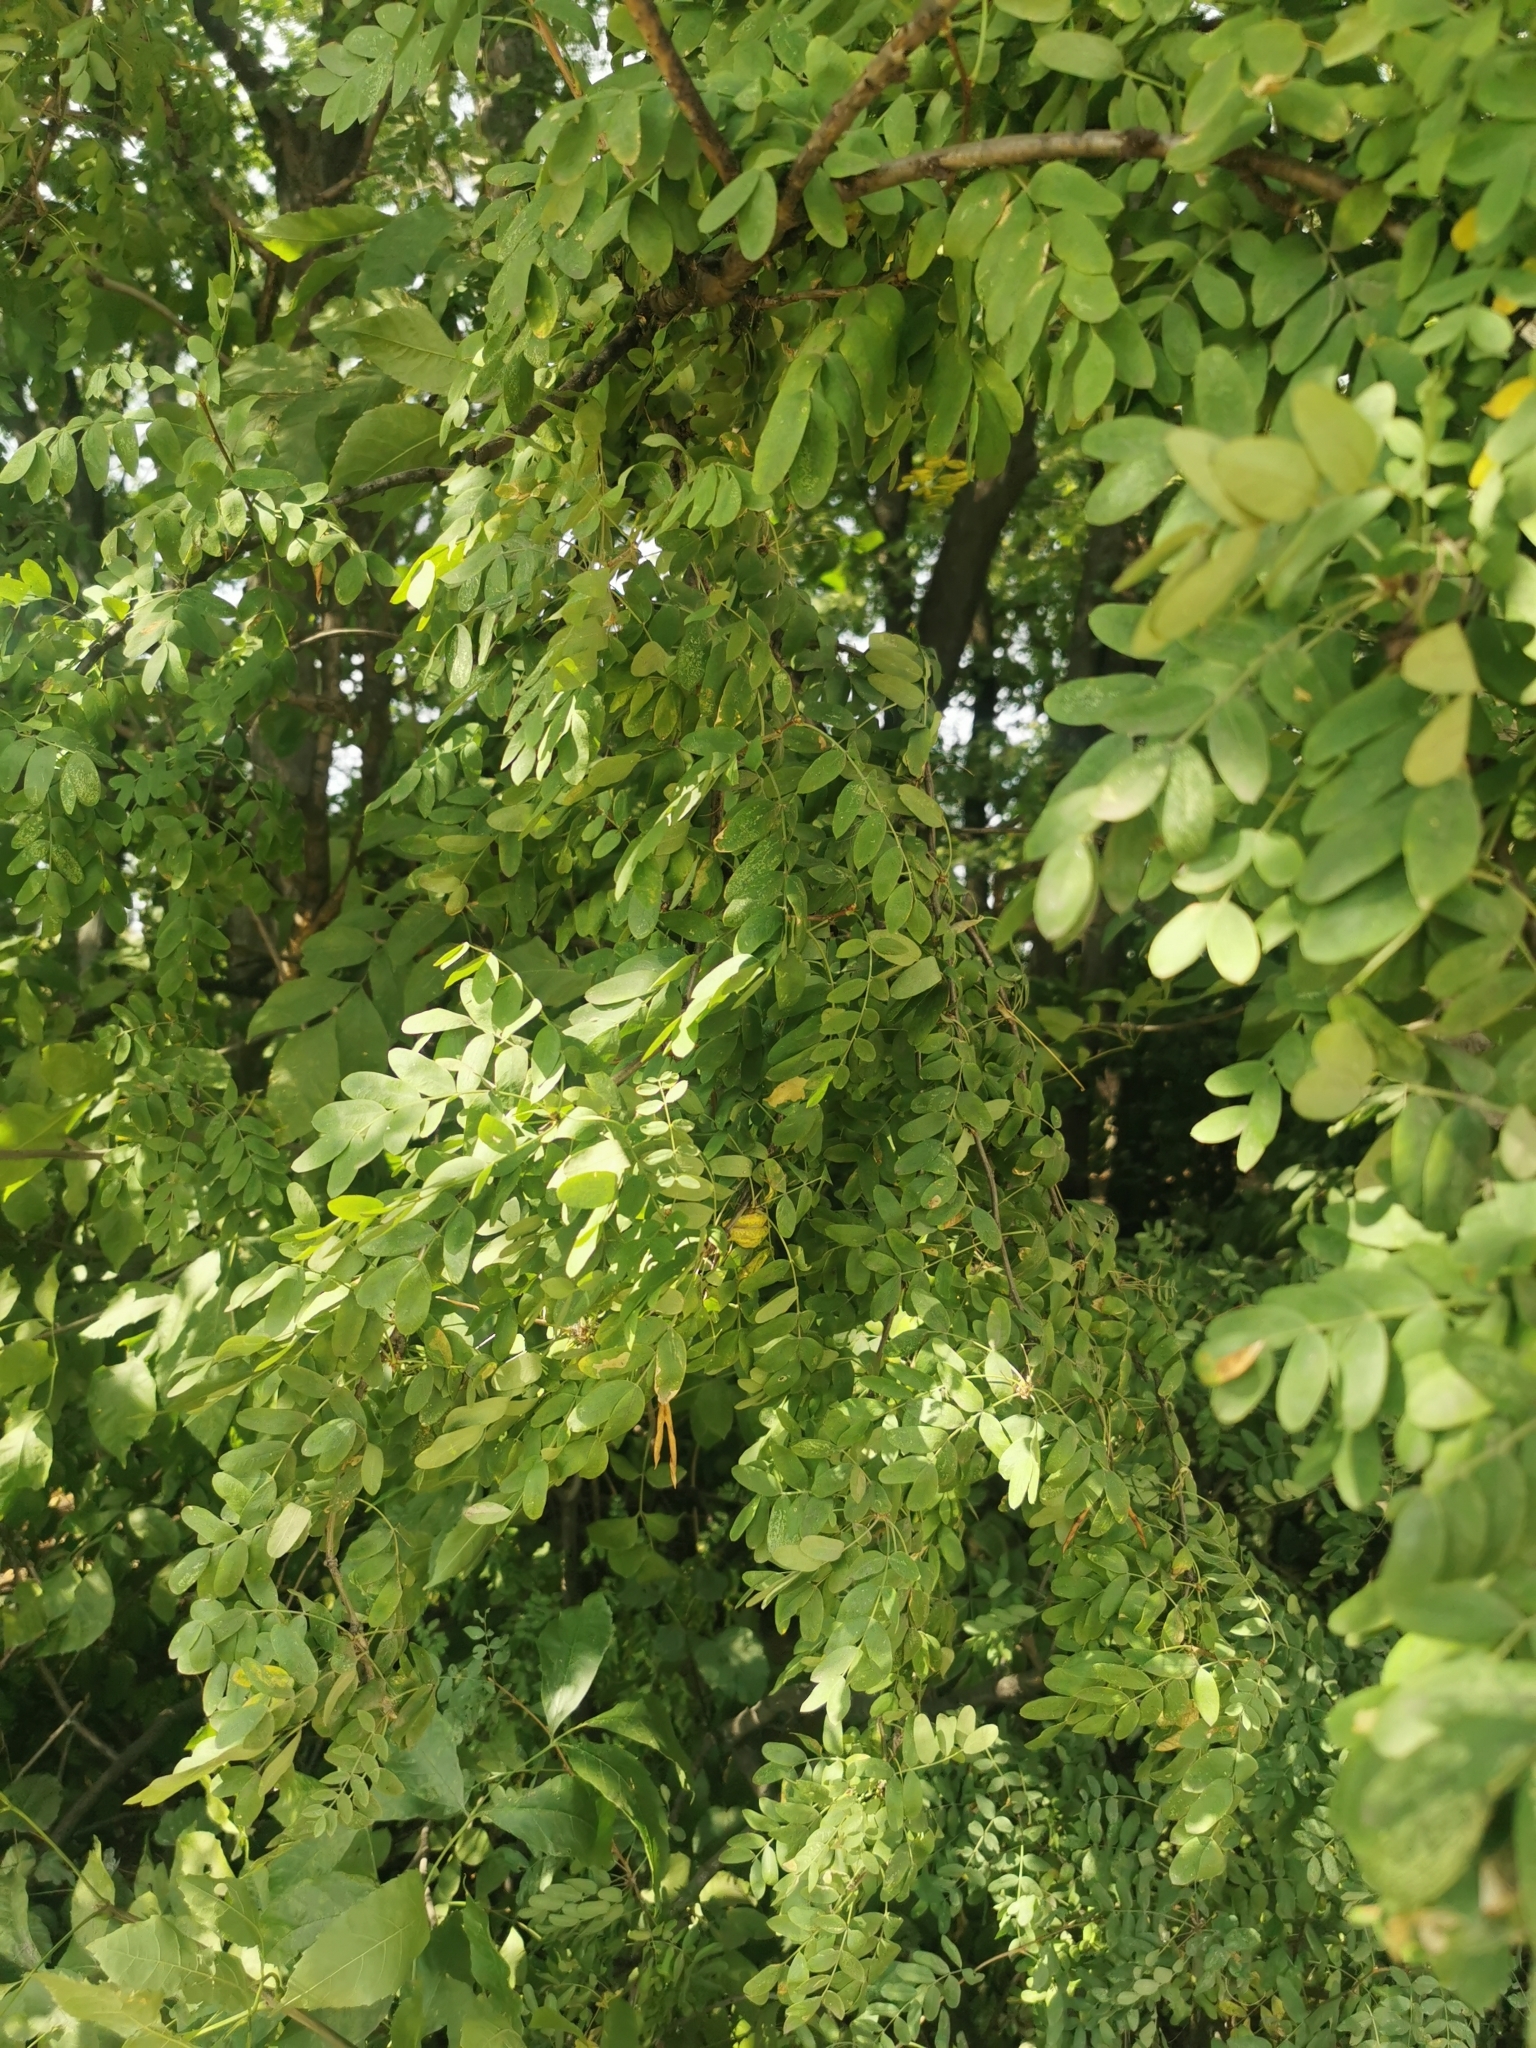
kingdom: Plantae
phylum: Tracheophyta
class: Magnoliopsida
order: Fabales
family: Fabaceae
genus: Caragana
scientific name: Caragana arborescens
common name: Siberian peashrub
